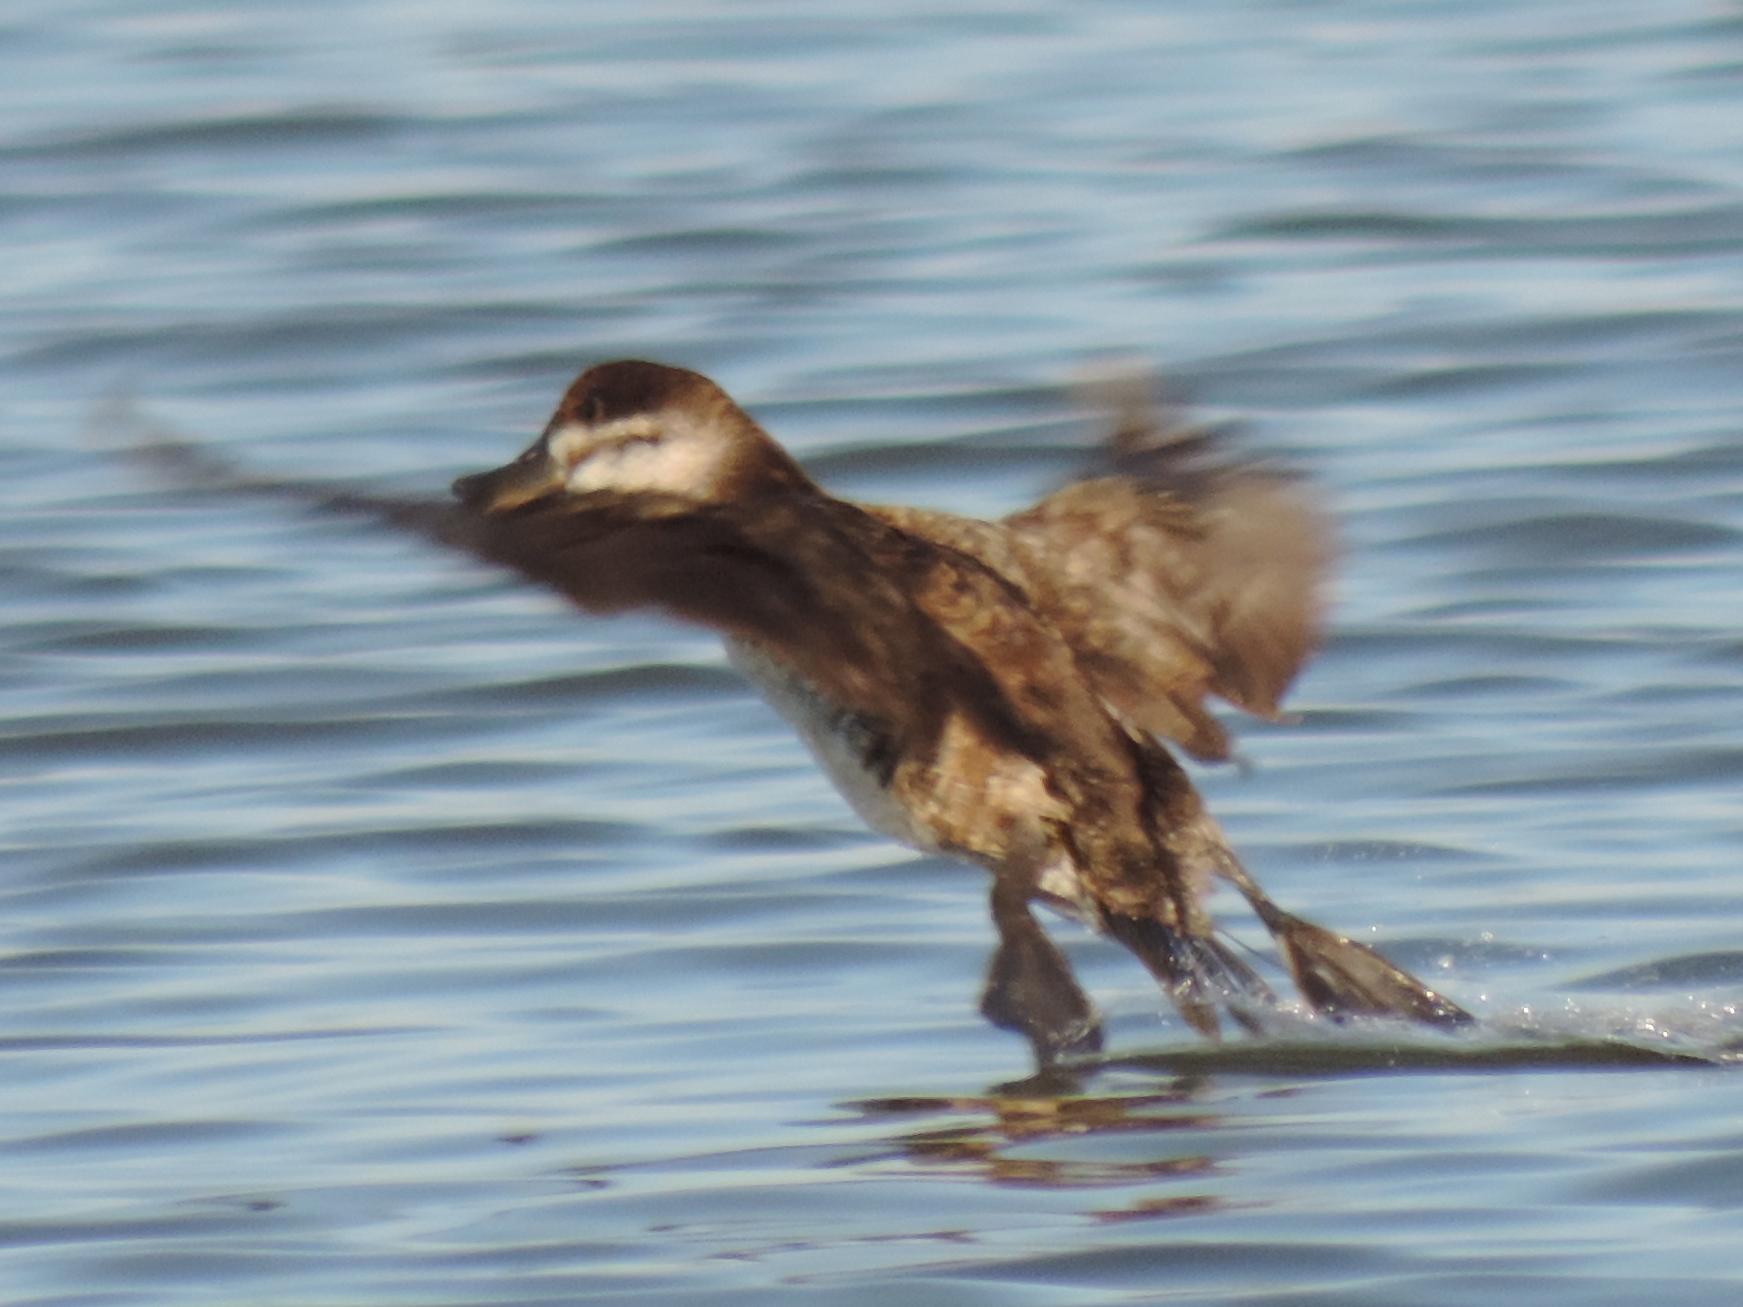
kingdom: Animalia
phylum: Chordata
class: Aves
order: Anseriformes
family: Anatidae
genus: Oxyura
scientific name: Oxyura jamaicensis
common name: Ruddy duck
